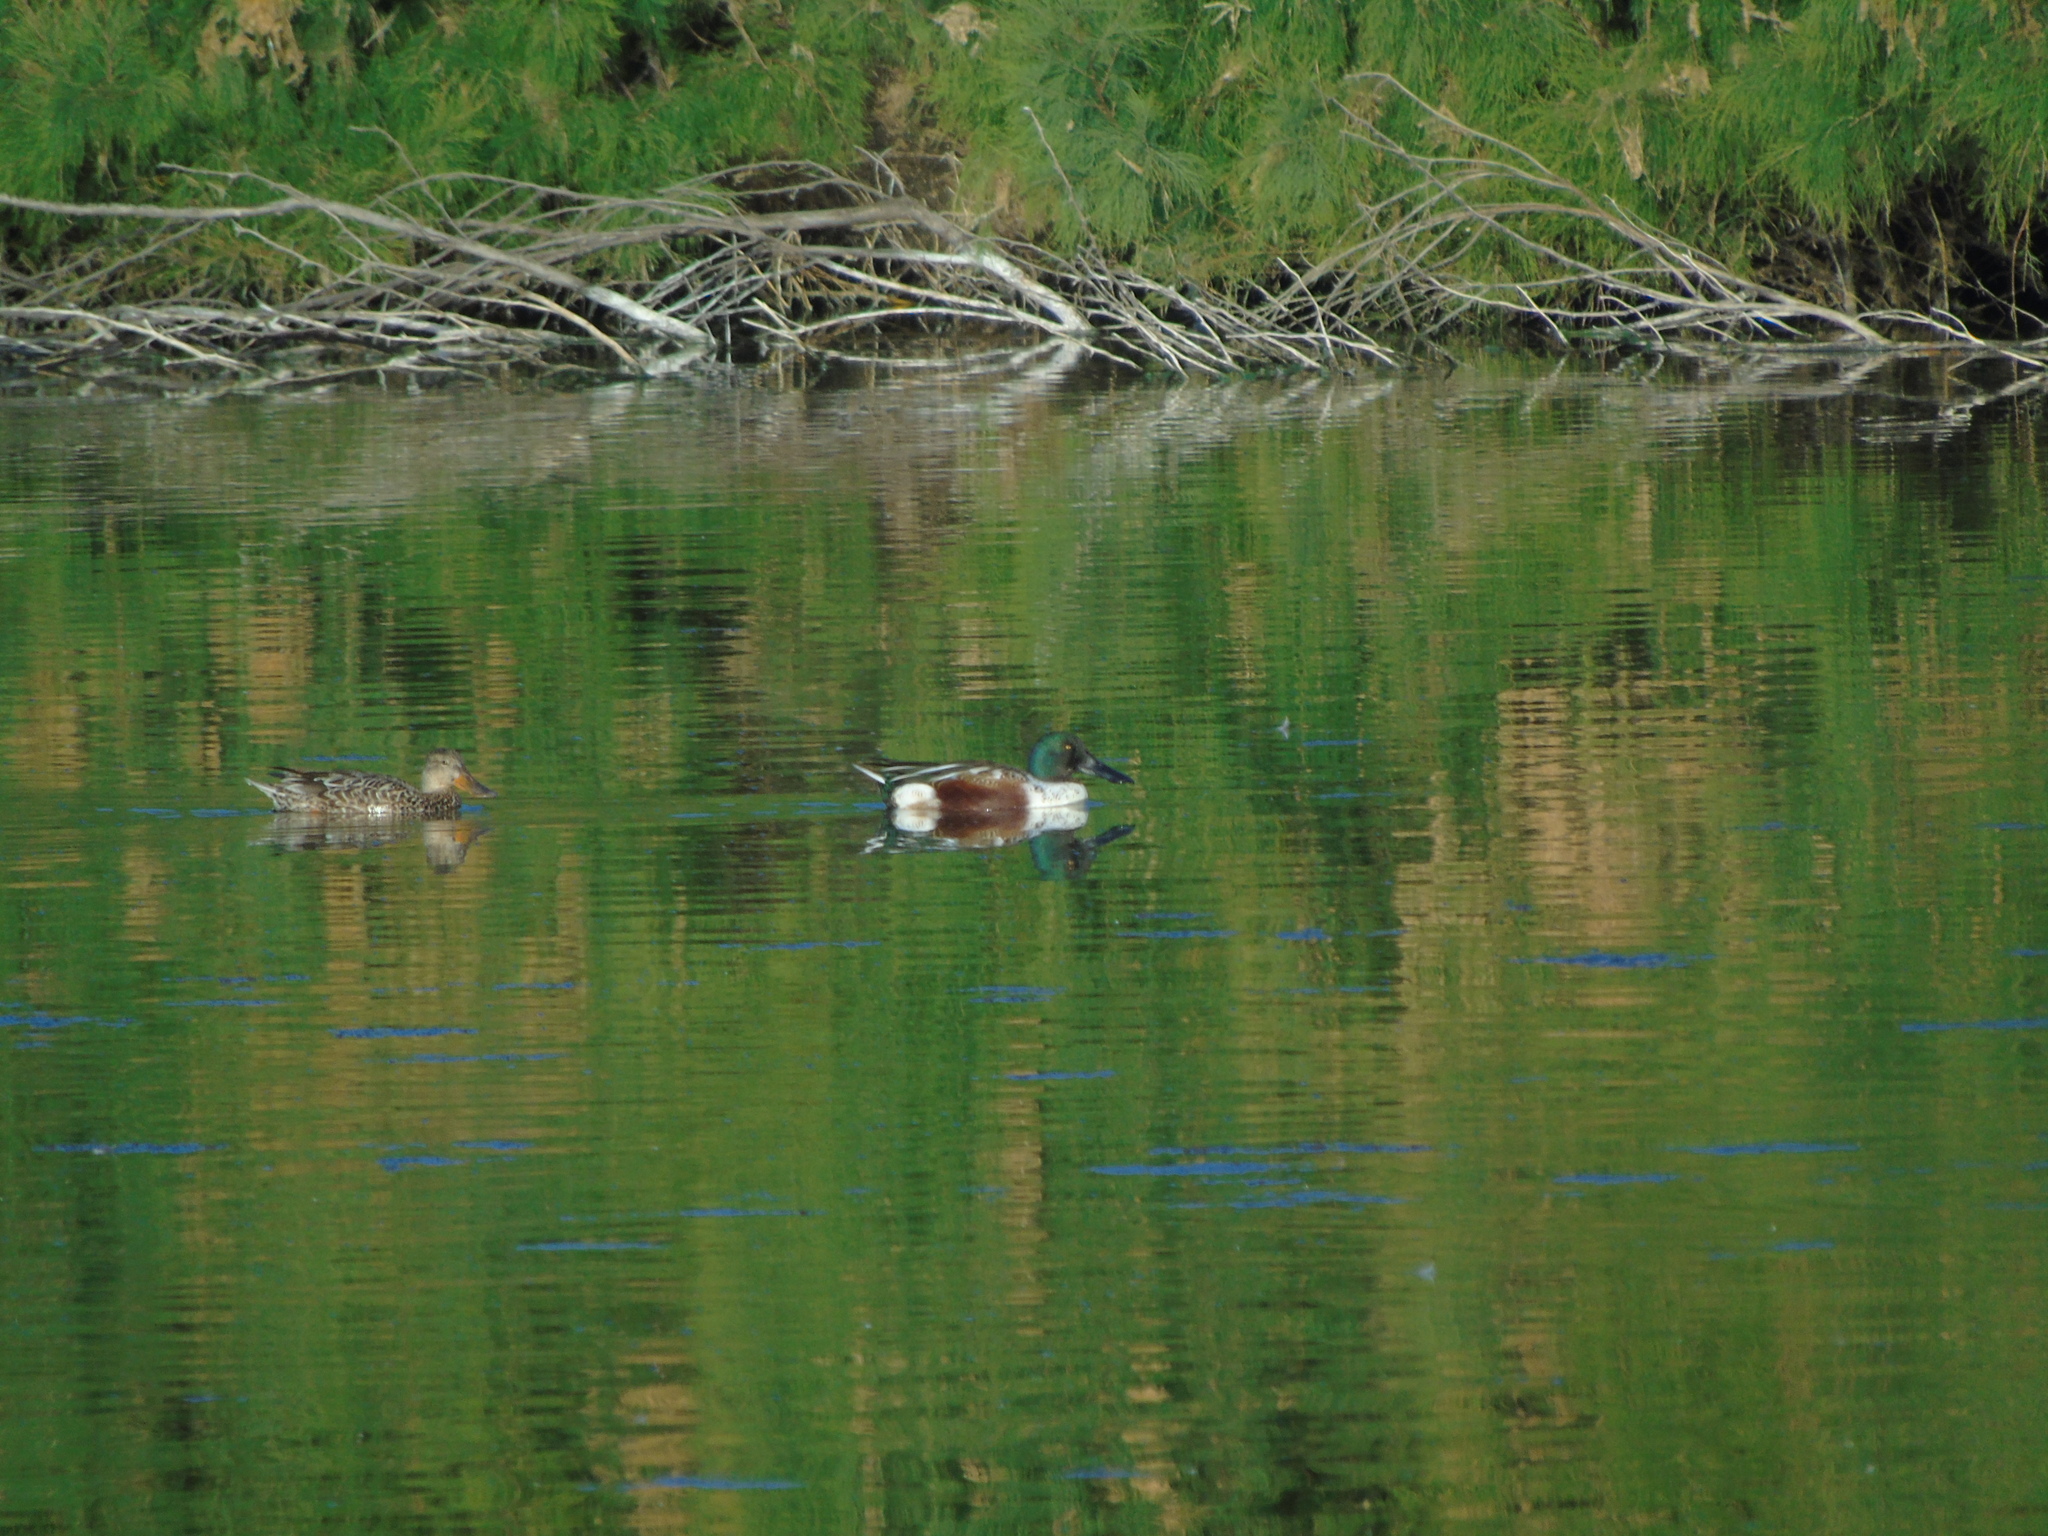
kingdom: Animalia
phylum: Chordata
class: Aves
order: Anseriformes
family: Anatidae
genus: Spatula
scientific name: Spatula clypeata
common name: Northern shoveler
